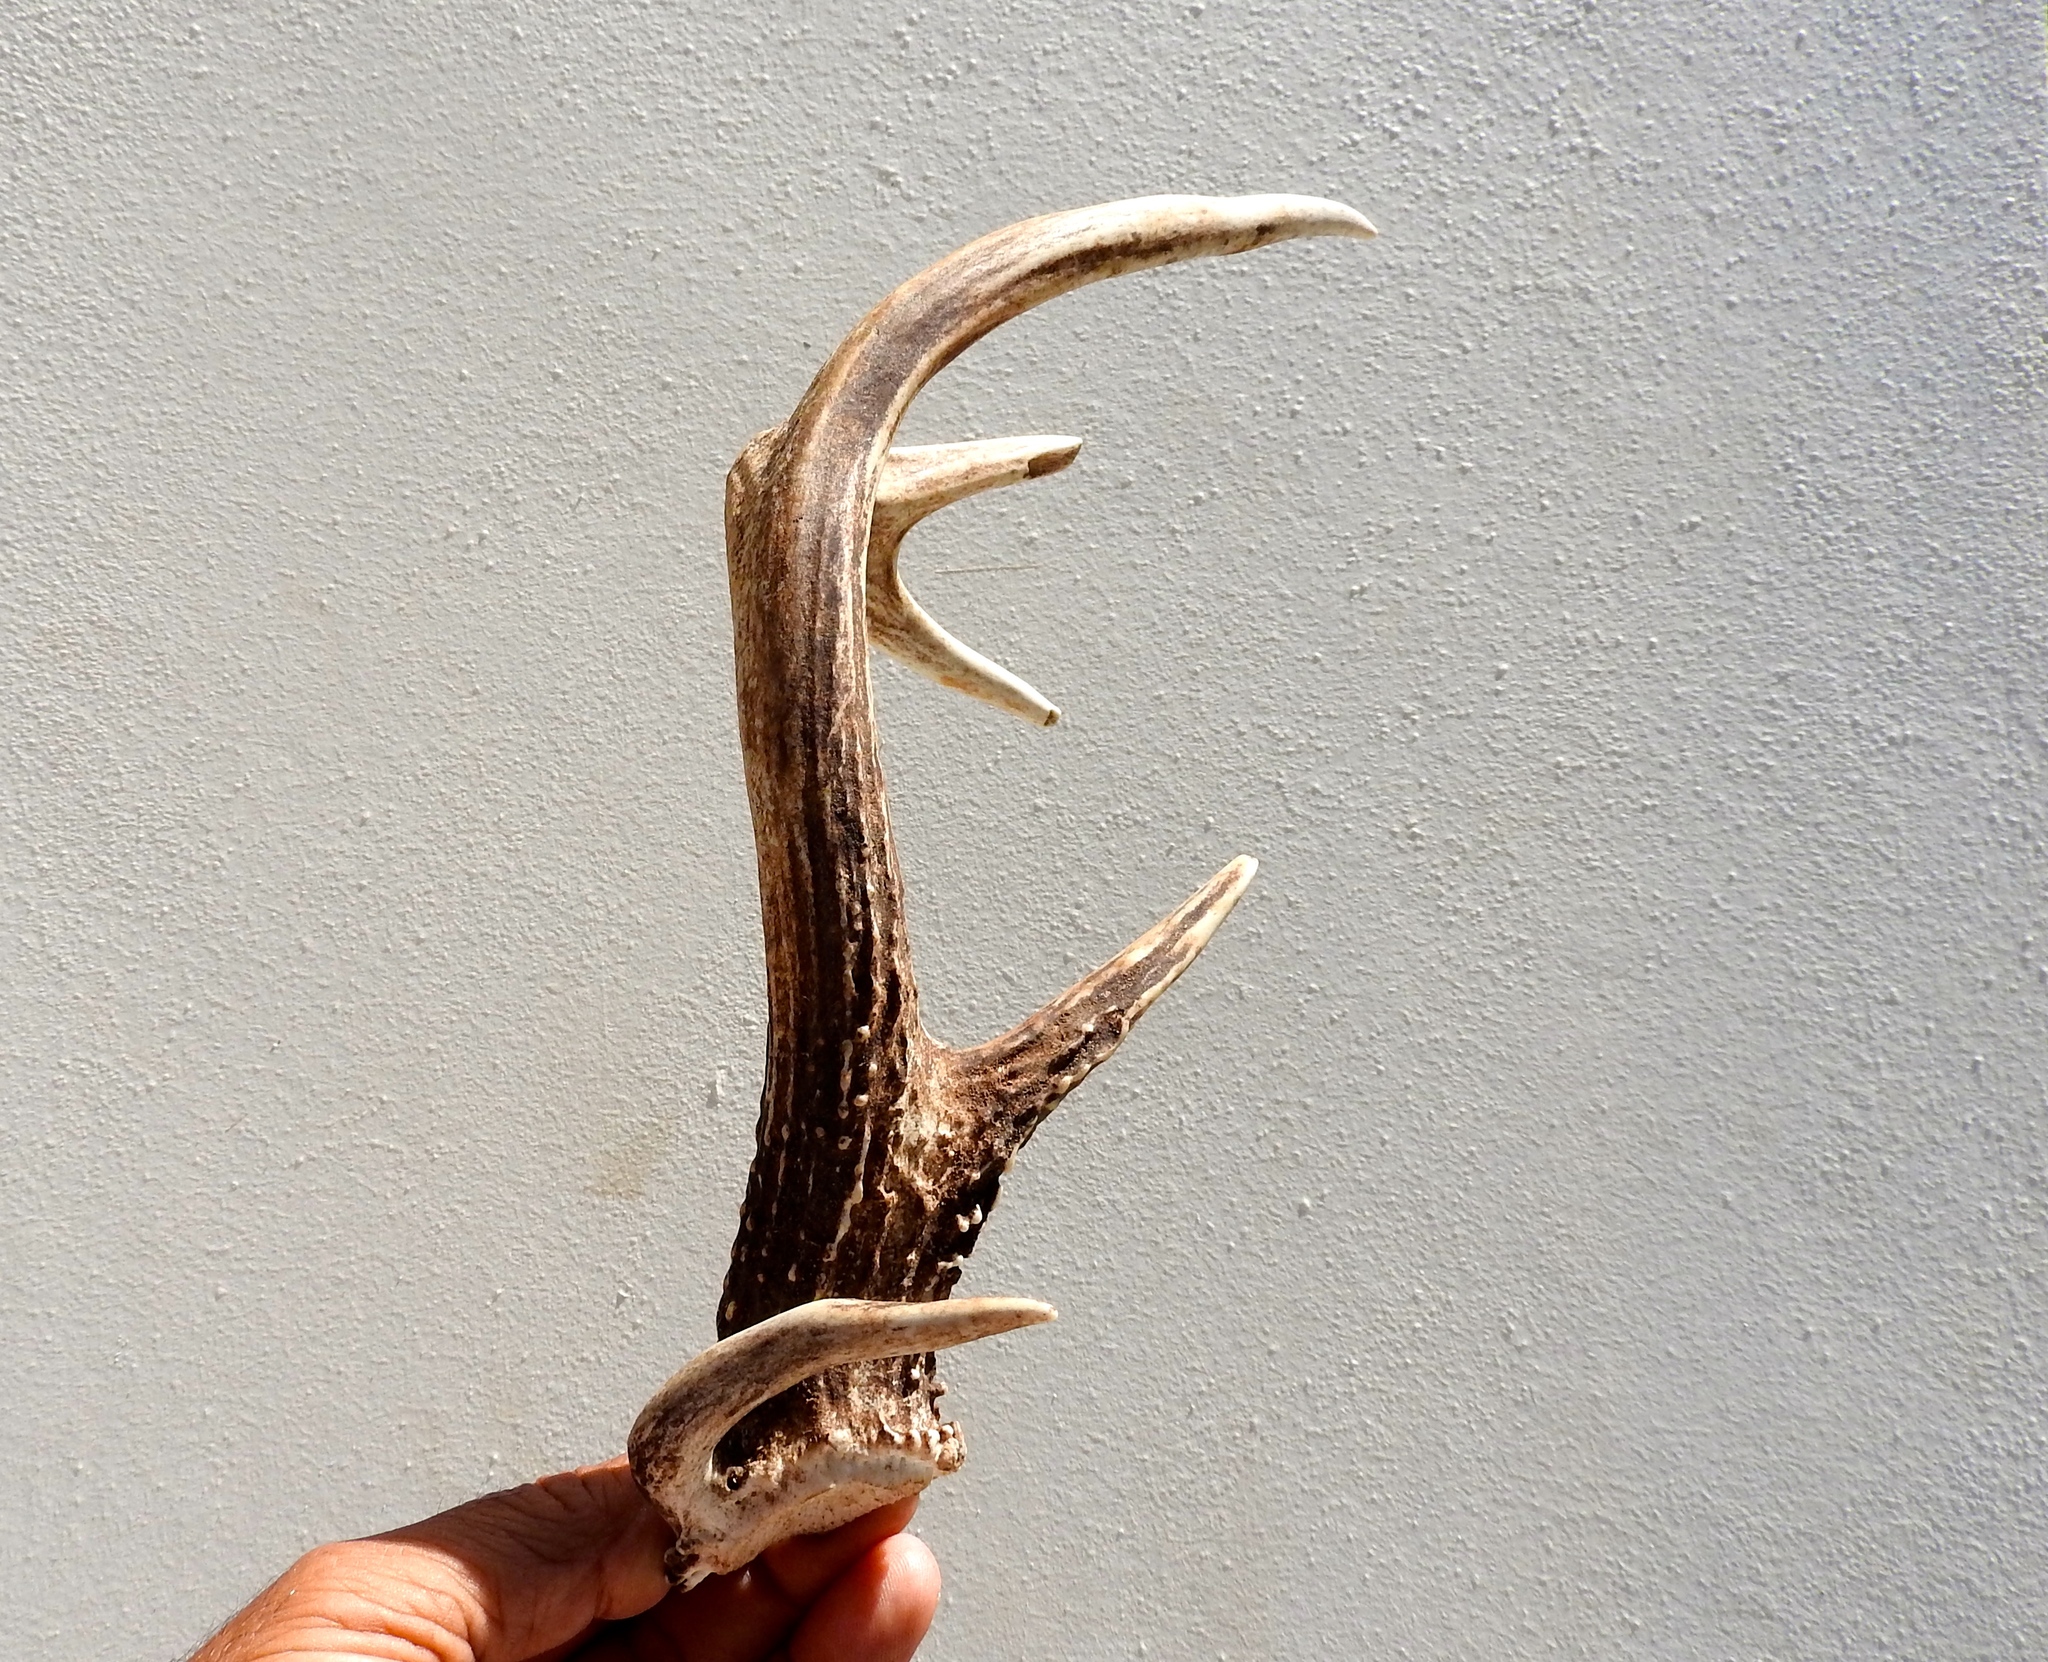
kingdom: Animalia
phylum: Chordata
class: Mammalia
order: Artiodactyla
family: Cervidae
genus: Odocoileus
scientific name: Odocoileus virginianus
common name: White-tailed deer
